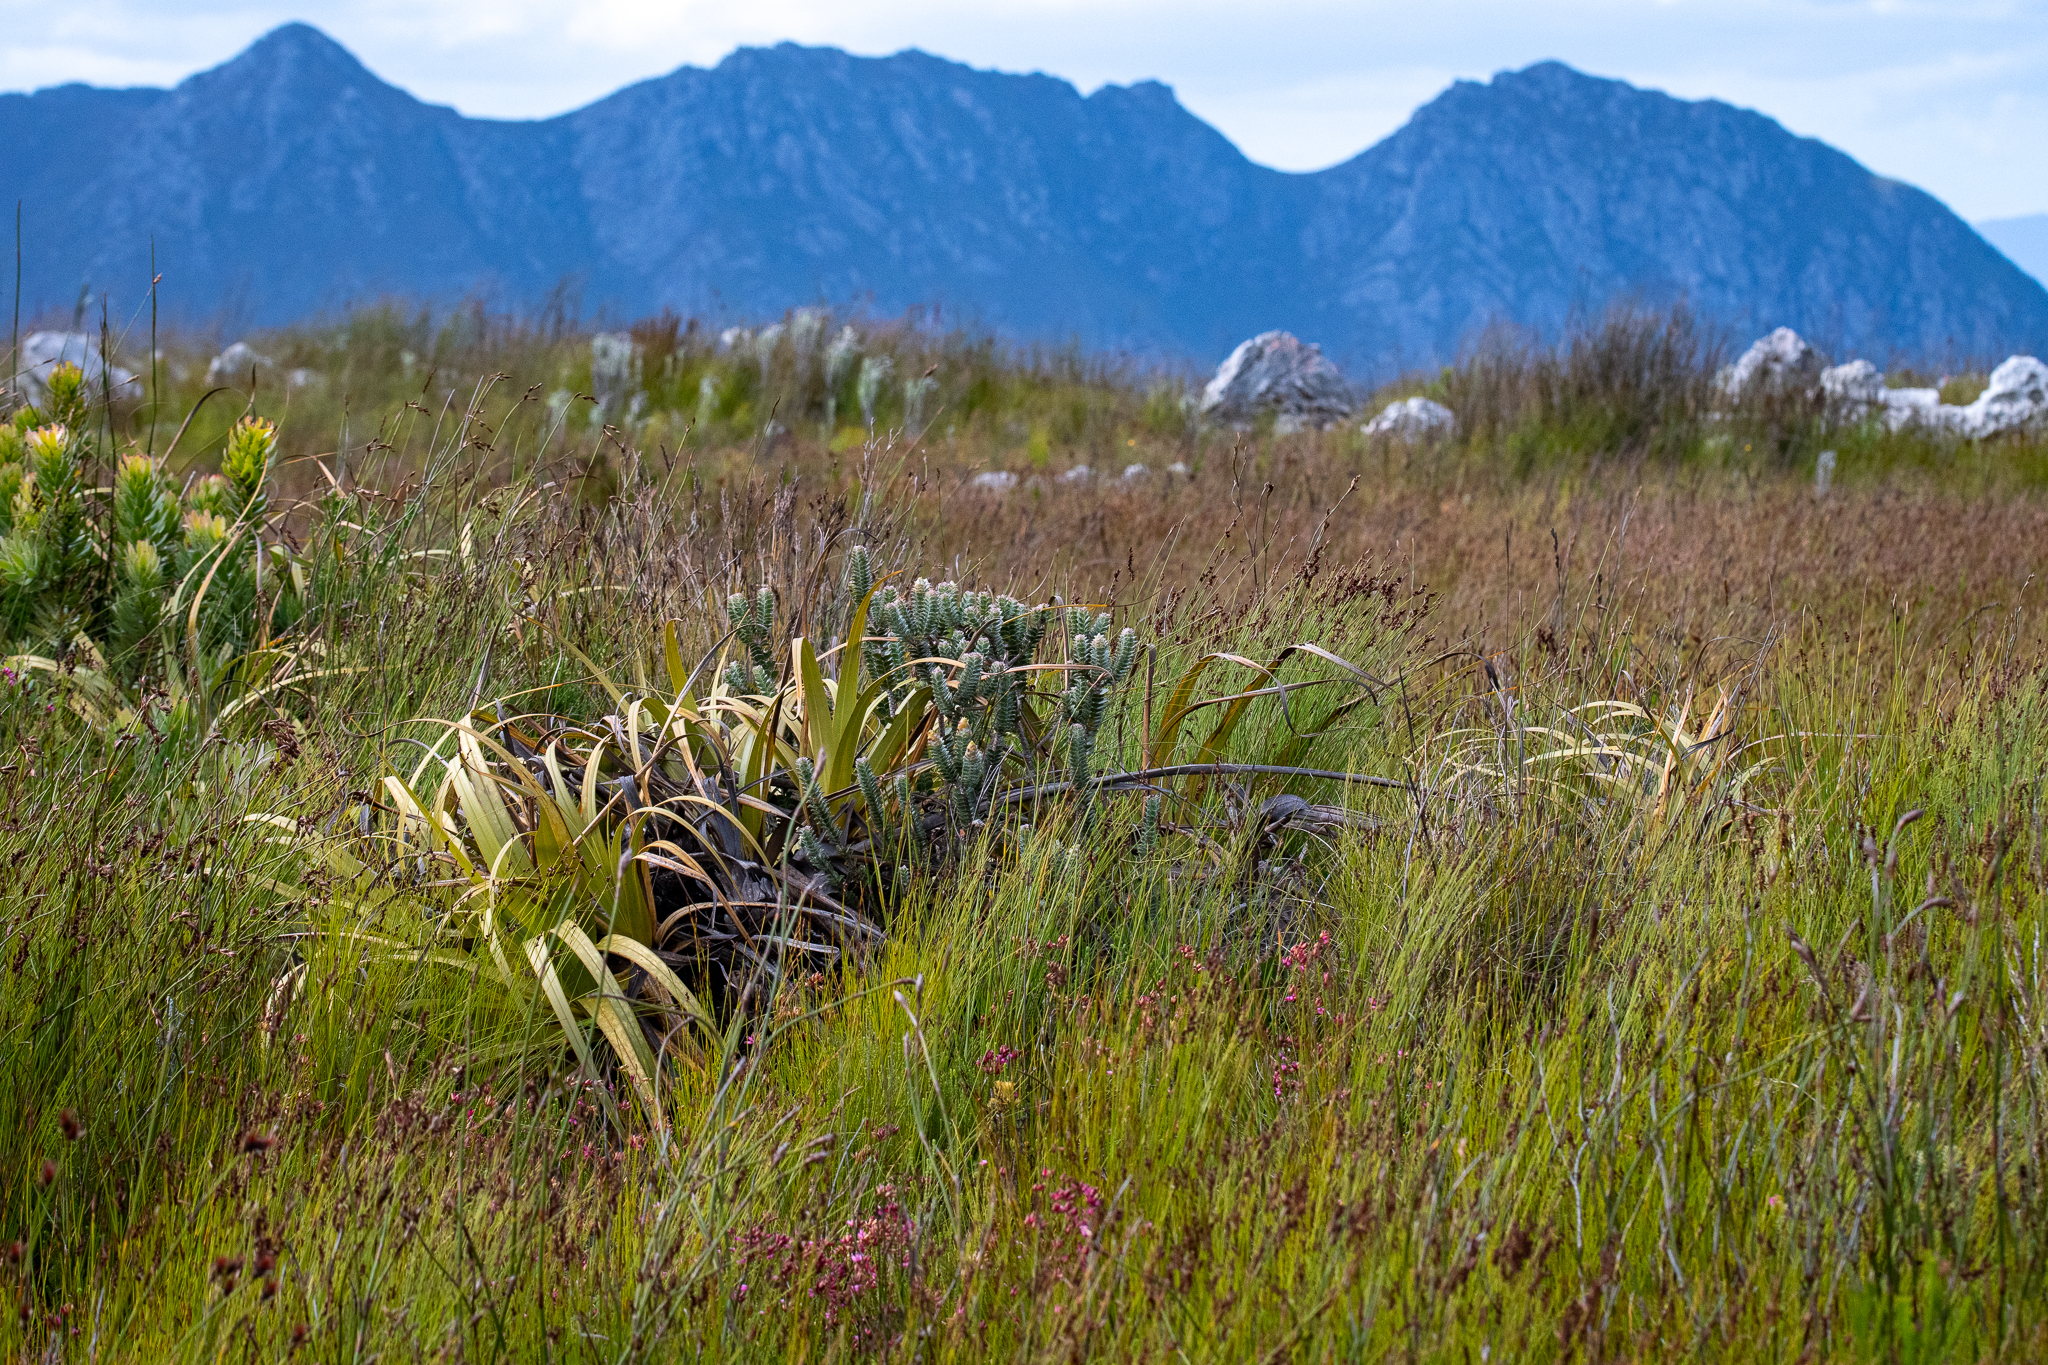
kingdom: Plantae
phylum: Tracheophyta
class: Magnoliopsida
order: Myrtales
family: Penaeaceae
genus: Saltera
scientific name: Saltera sarcocolla
